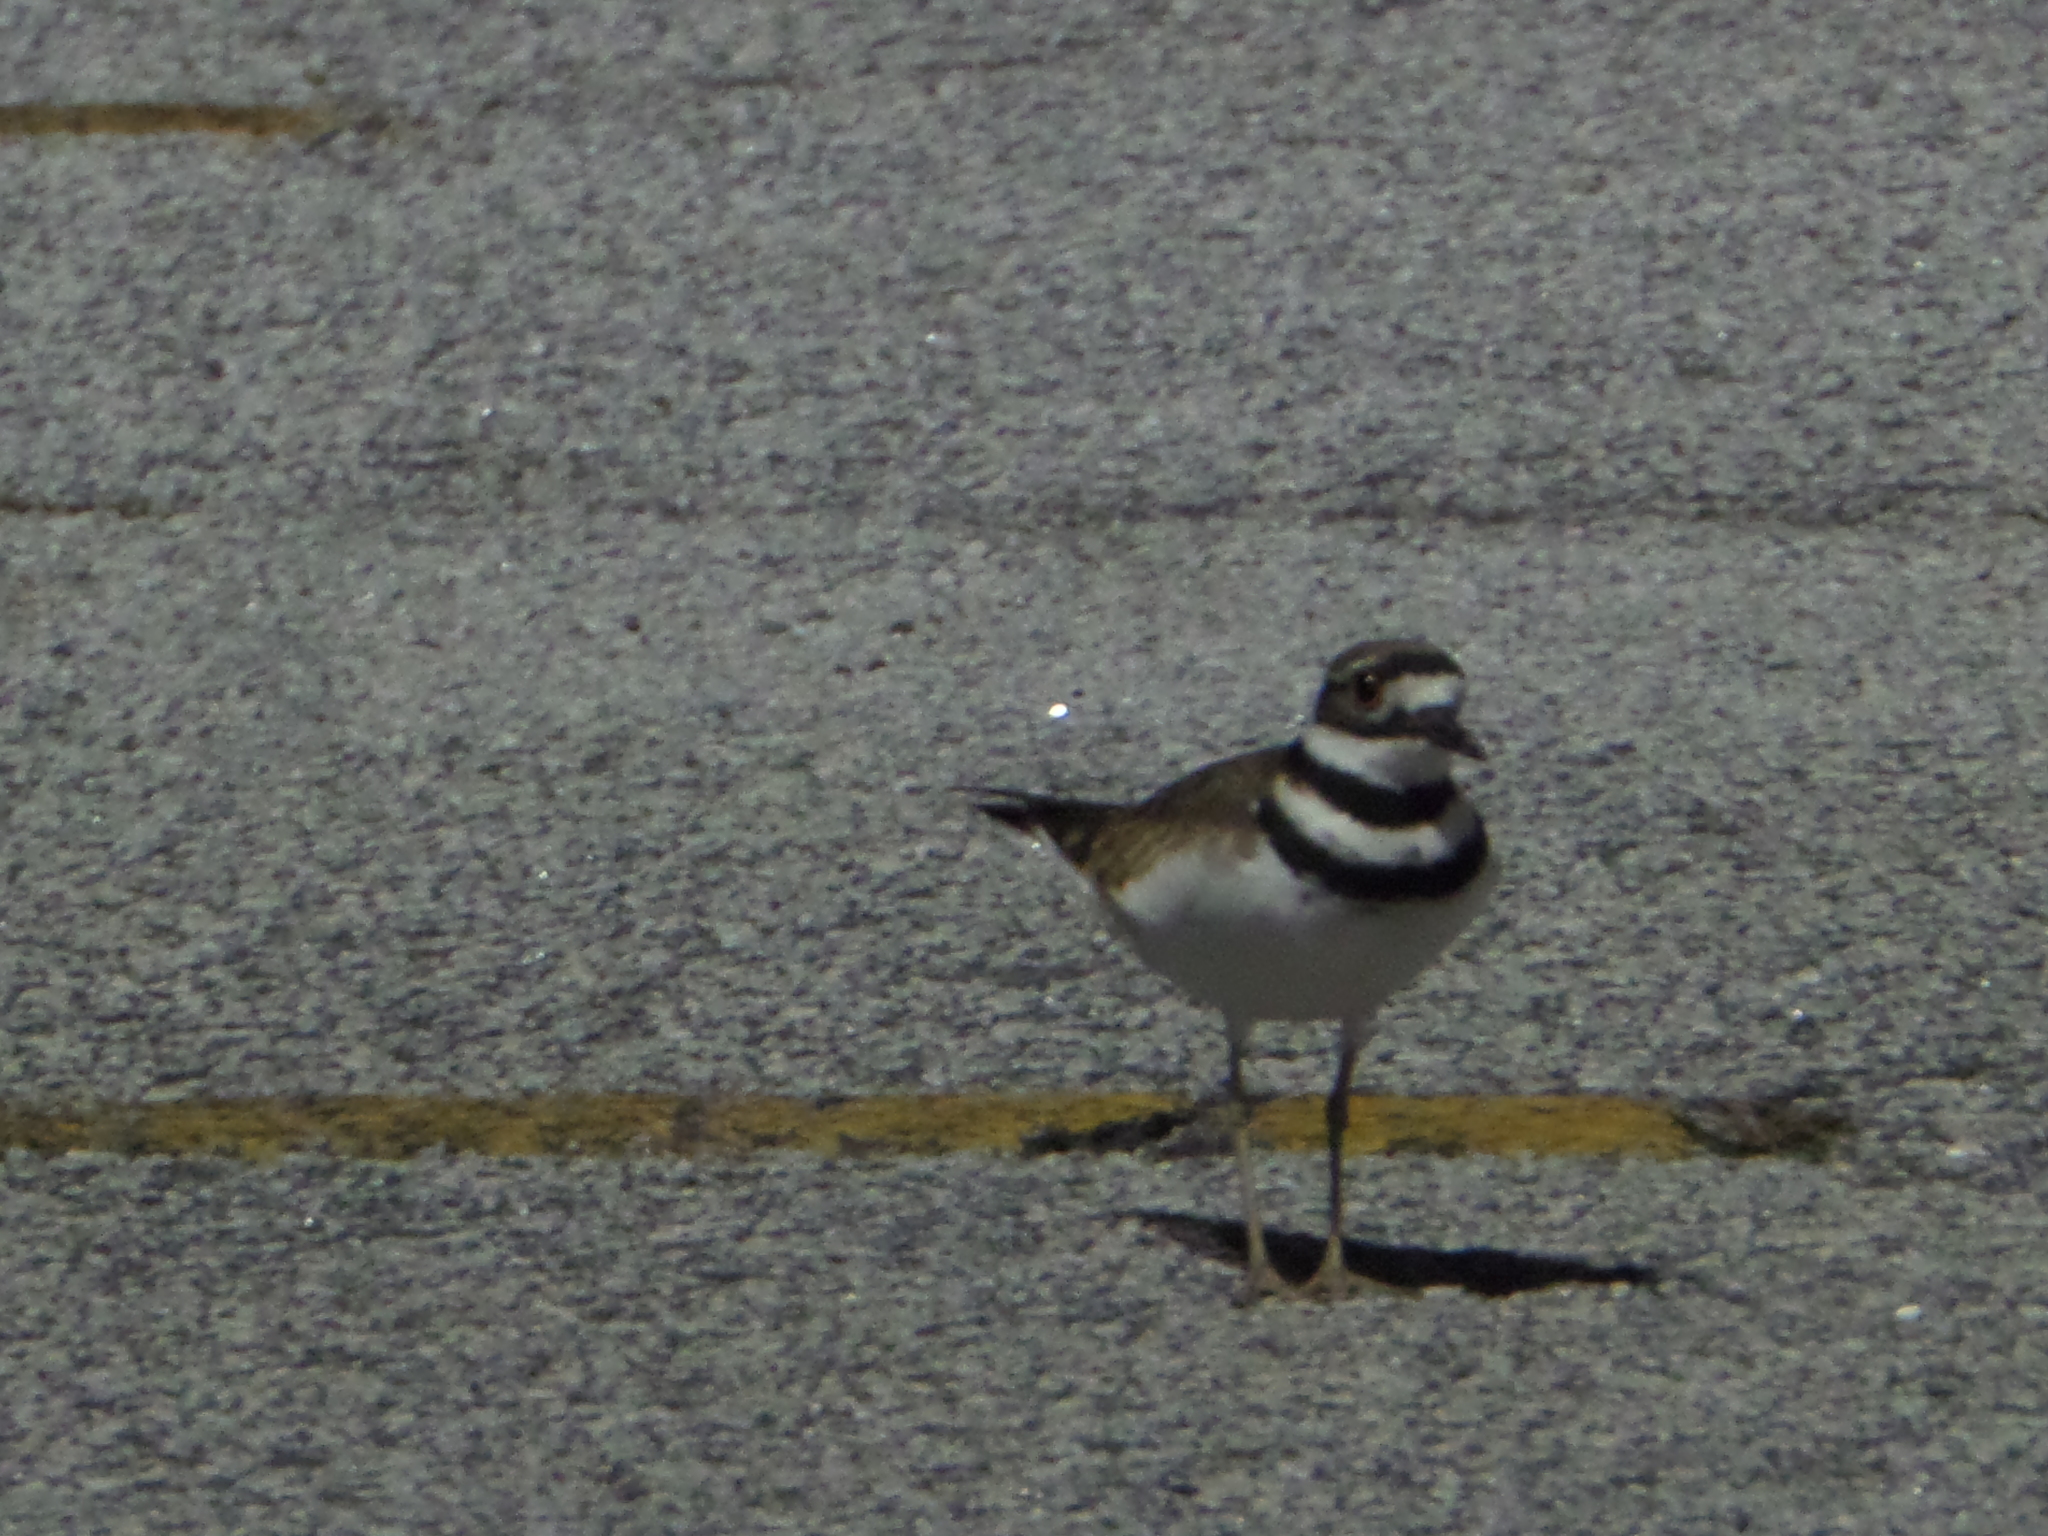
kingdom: Animalia
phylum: Chordata
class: Aves
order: Charadriiformes
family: Charadriidae
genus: Charadrius
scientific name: Charadrius vociferus
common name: Killdeer
